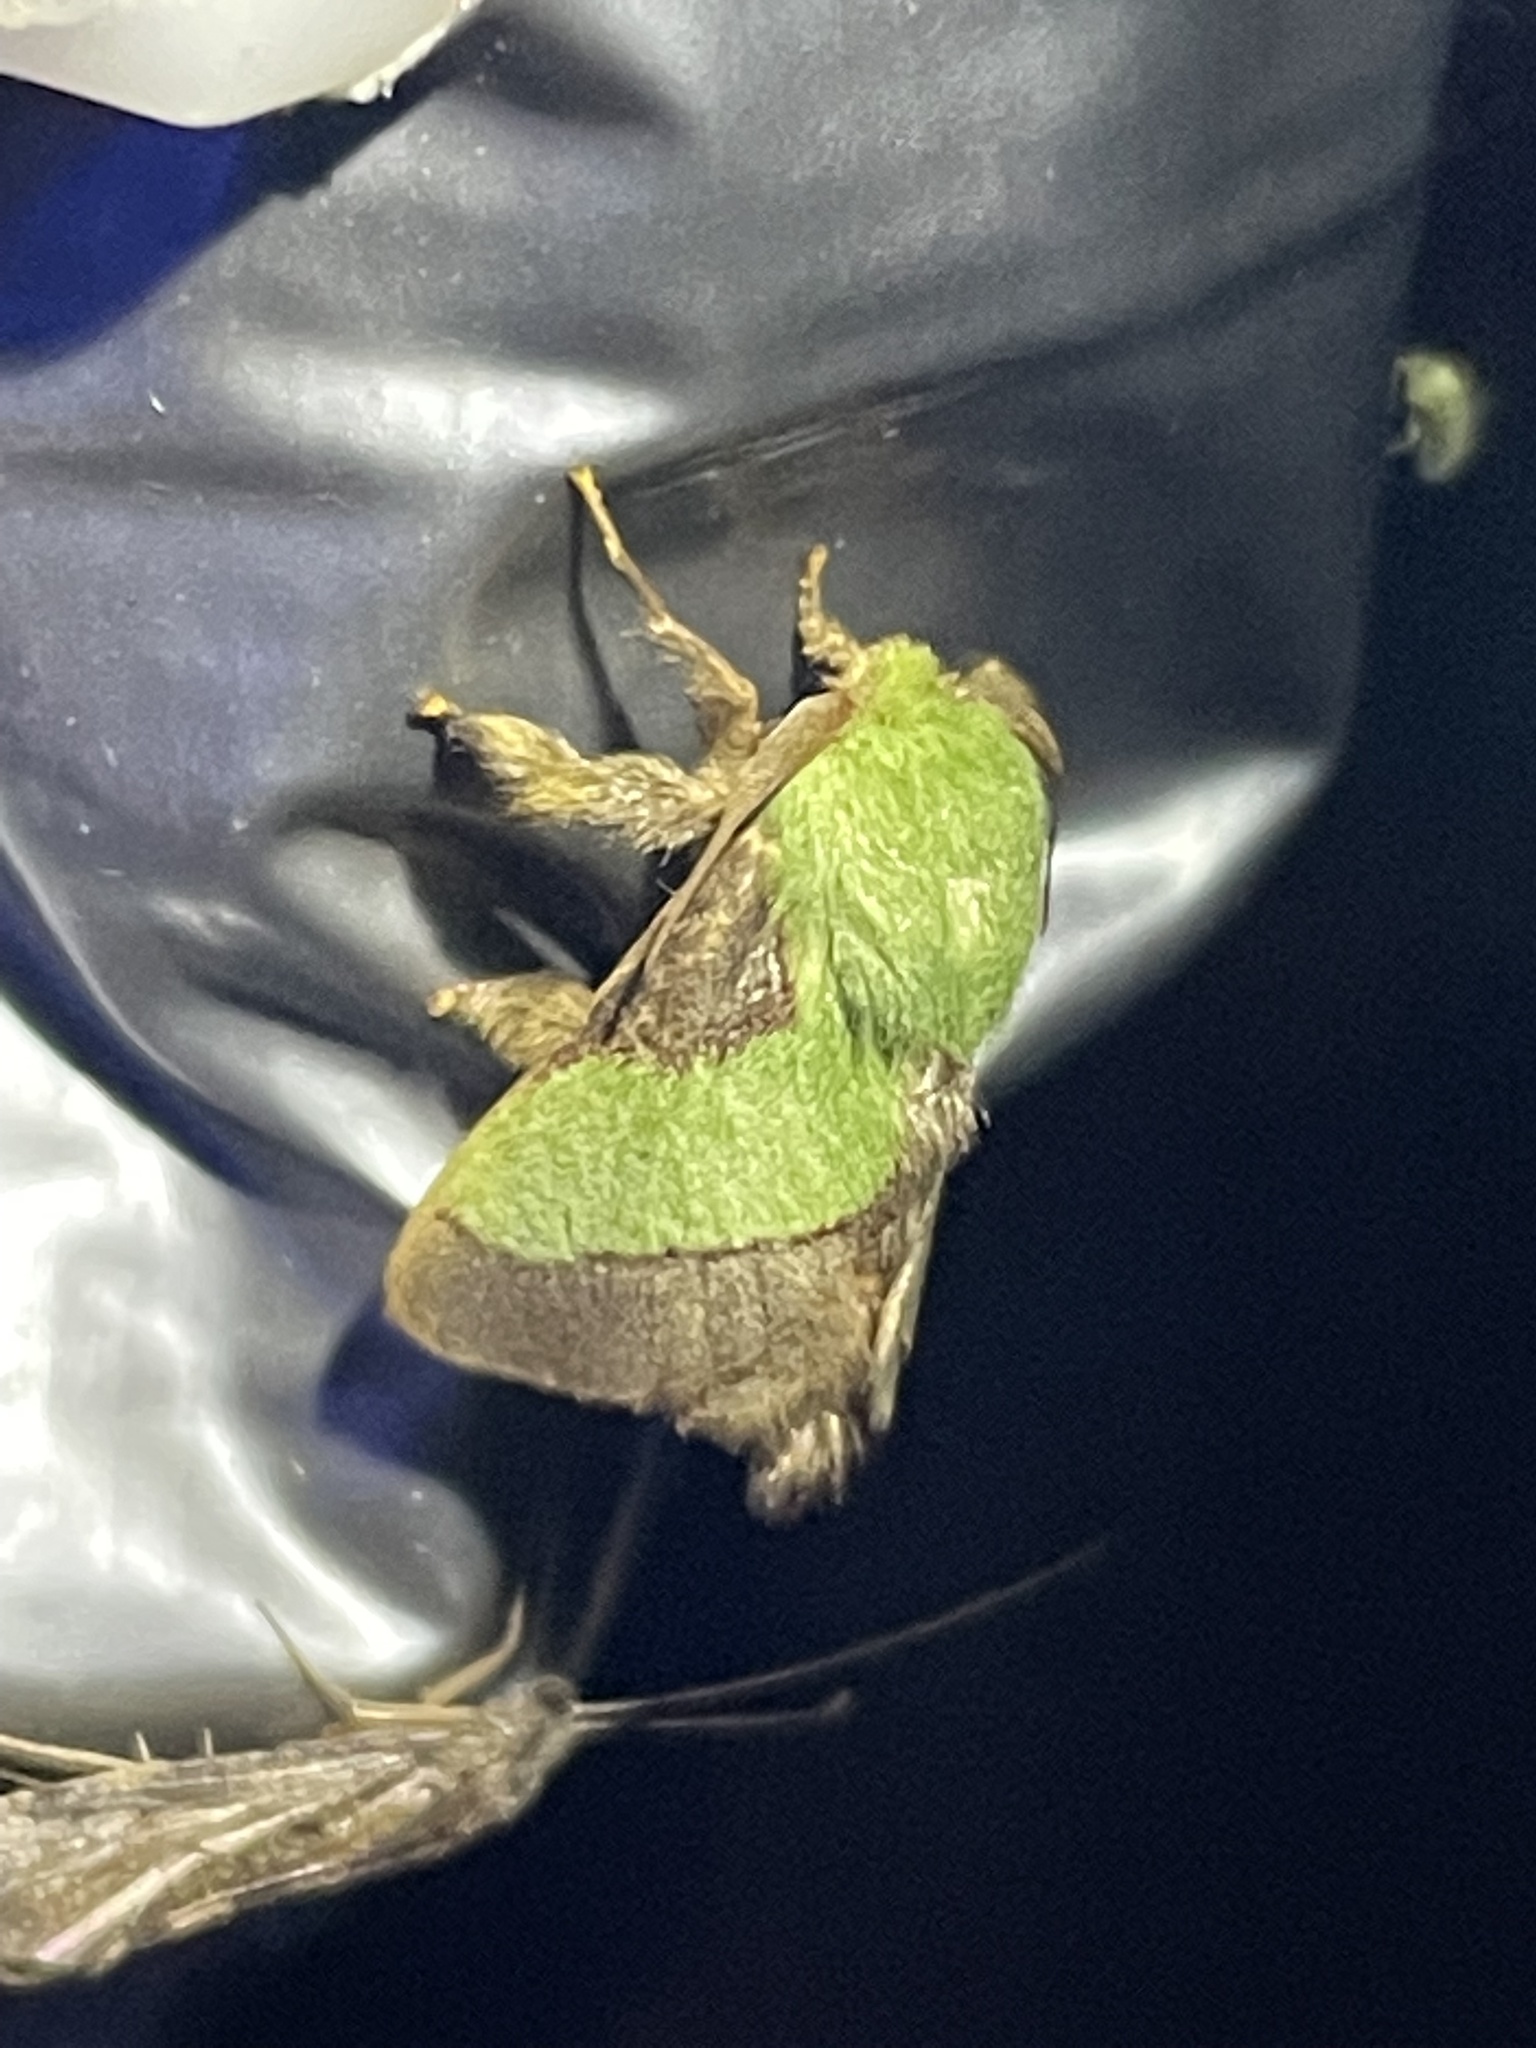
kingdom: Animalia
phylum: Arthropoda
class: Insecta
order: Lepidoptera
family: Limacodidae
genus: Parasa
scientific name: Parasa chloris
